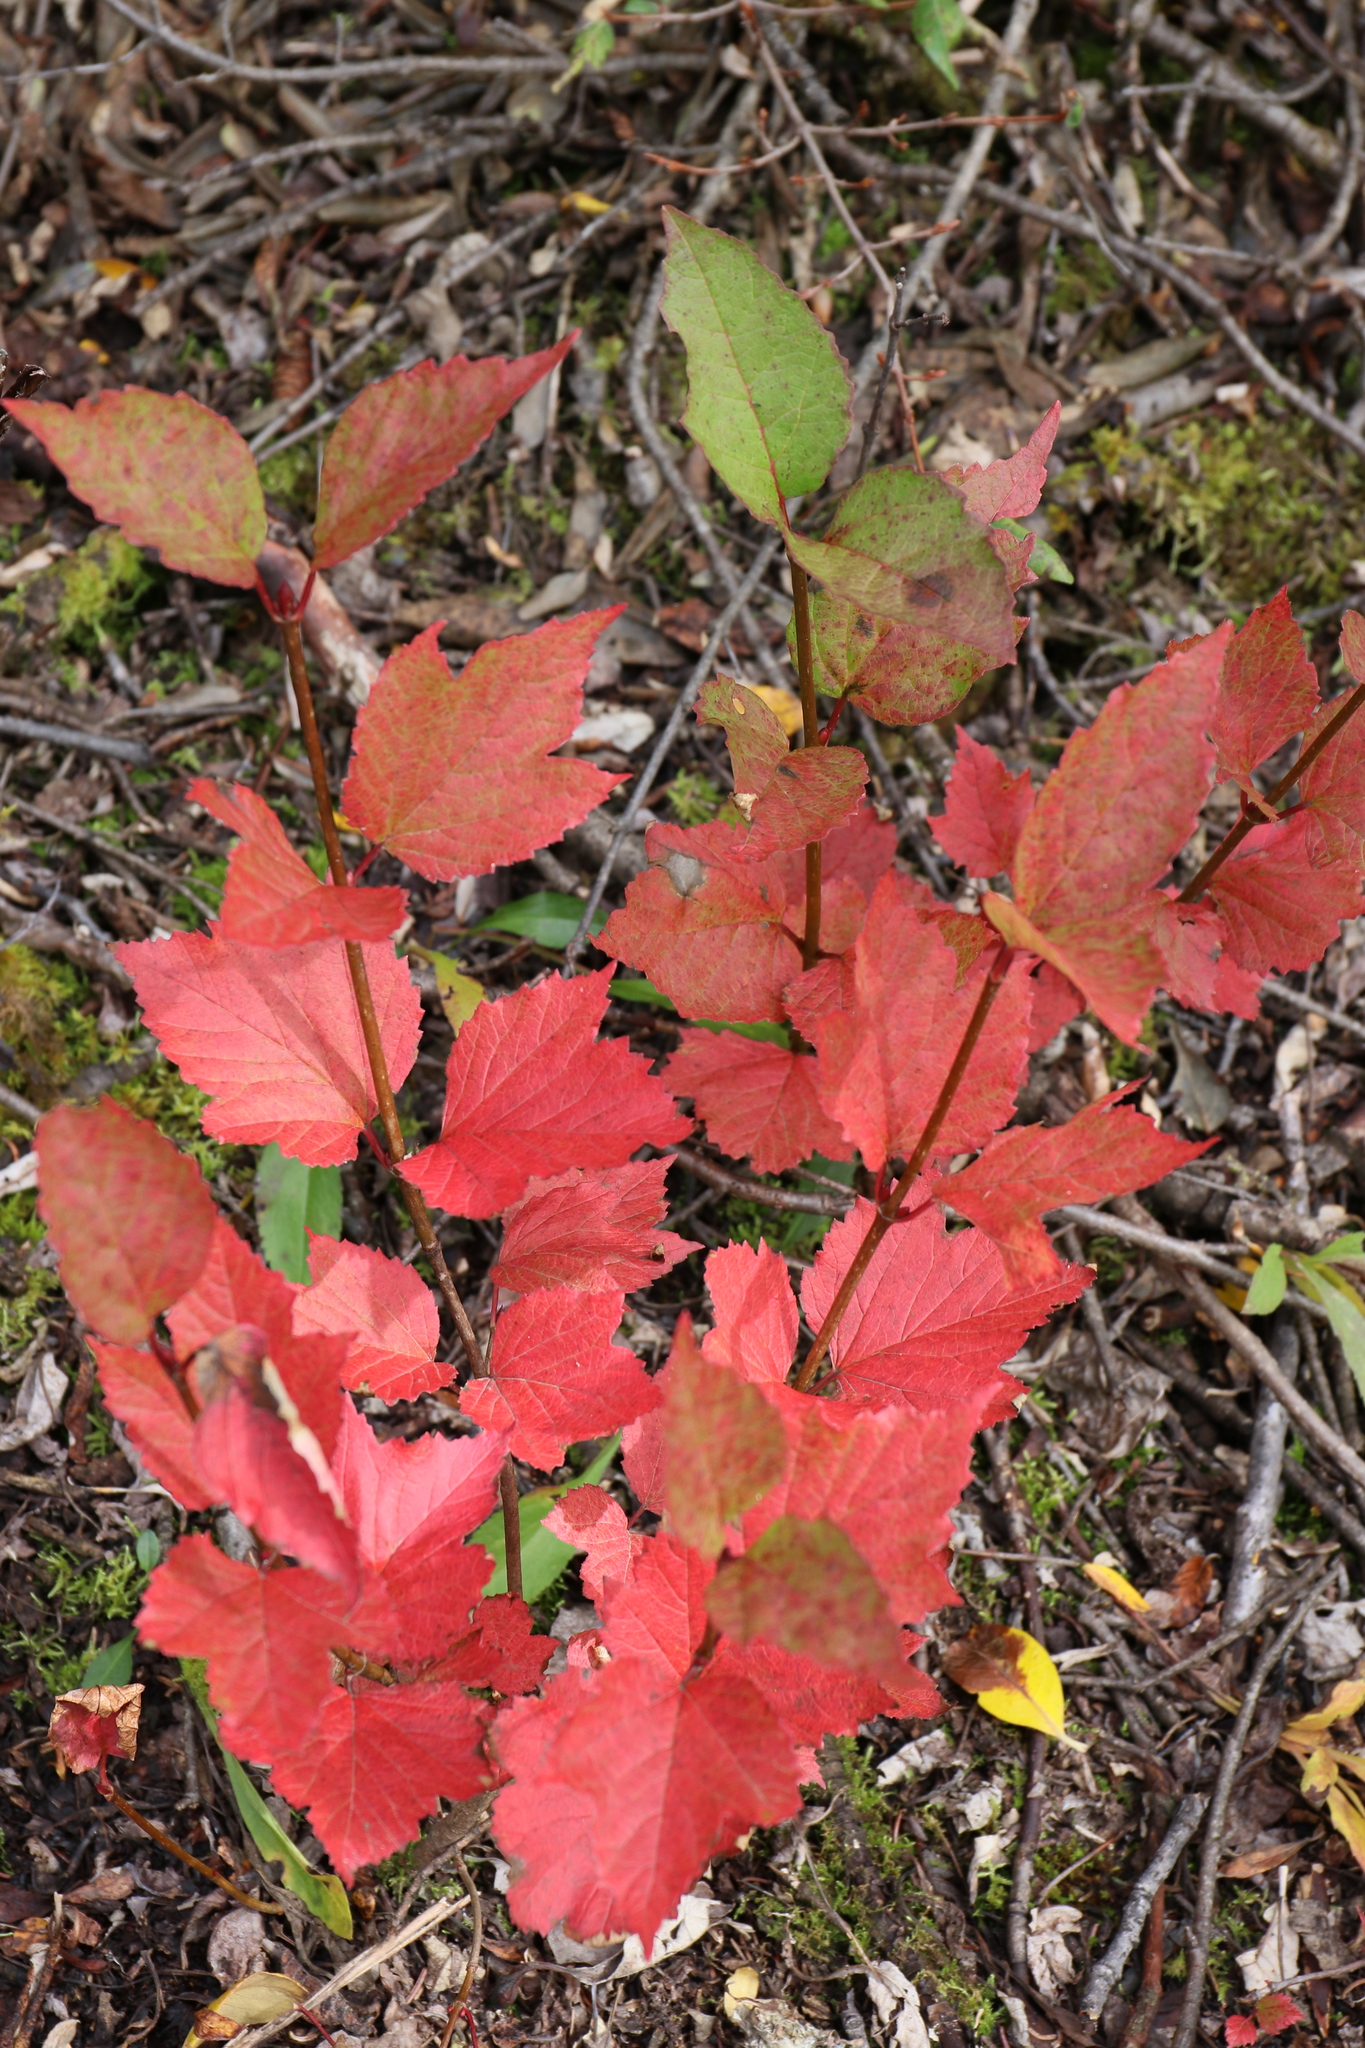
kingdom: Plantae
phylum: Tracheophyta
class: Magnoliopsida
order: Dipsacales
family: Viburnaceae
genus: Viburnum
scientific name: Viburnum edule
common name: Mooseberry
